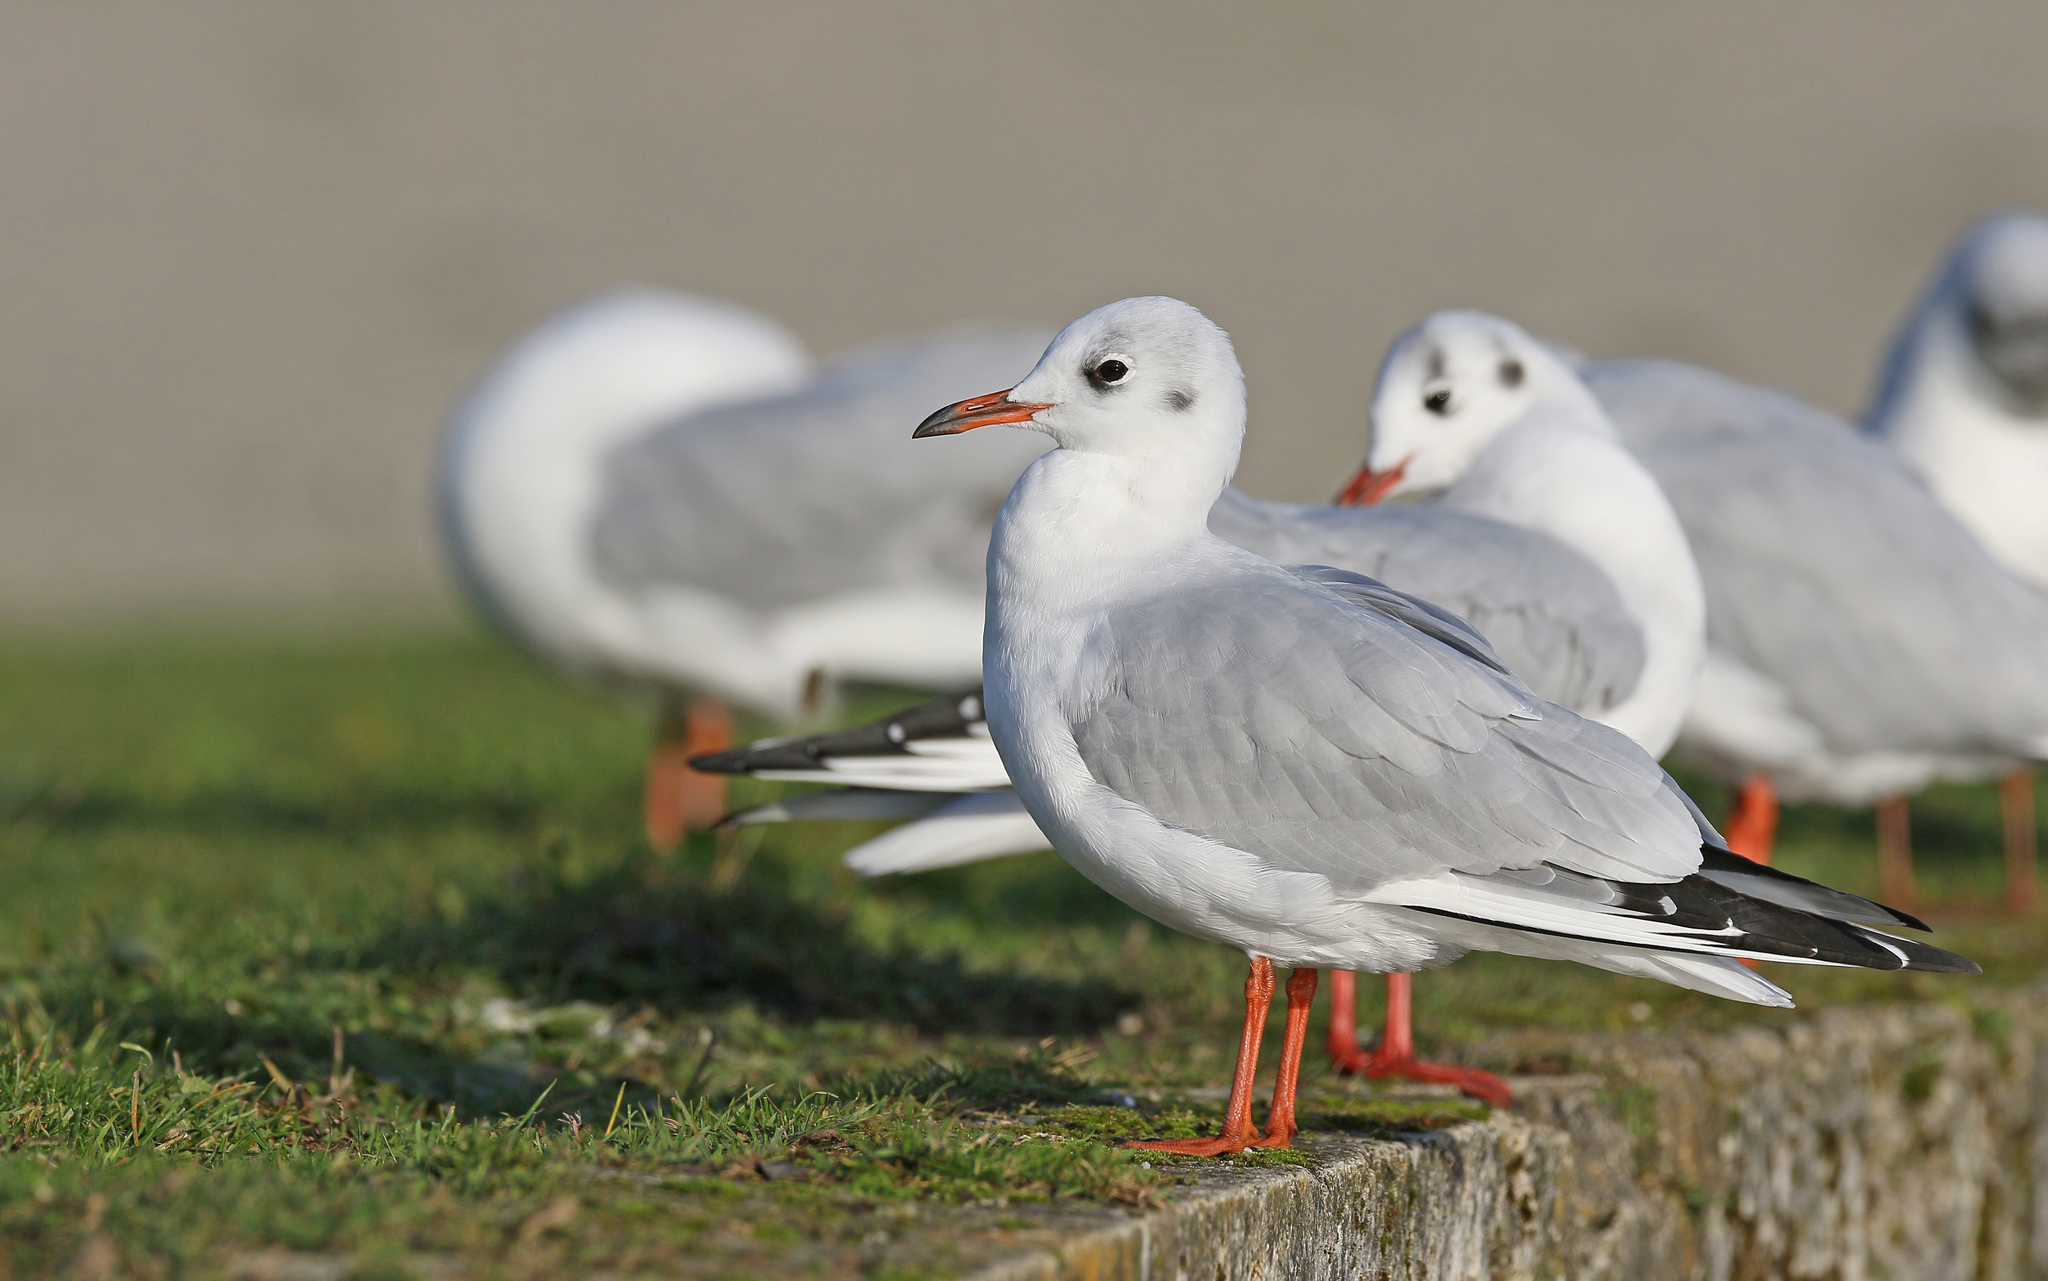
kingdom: Animalia
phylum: Chordata
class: Aves
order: Charadriiformes
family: Laridae
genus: Chroicocephalus
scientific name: Chroicocephalus ridibundus
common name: Black-headed gull
